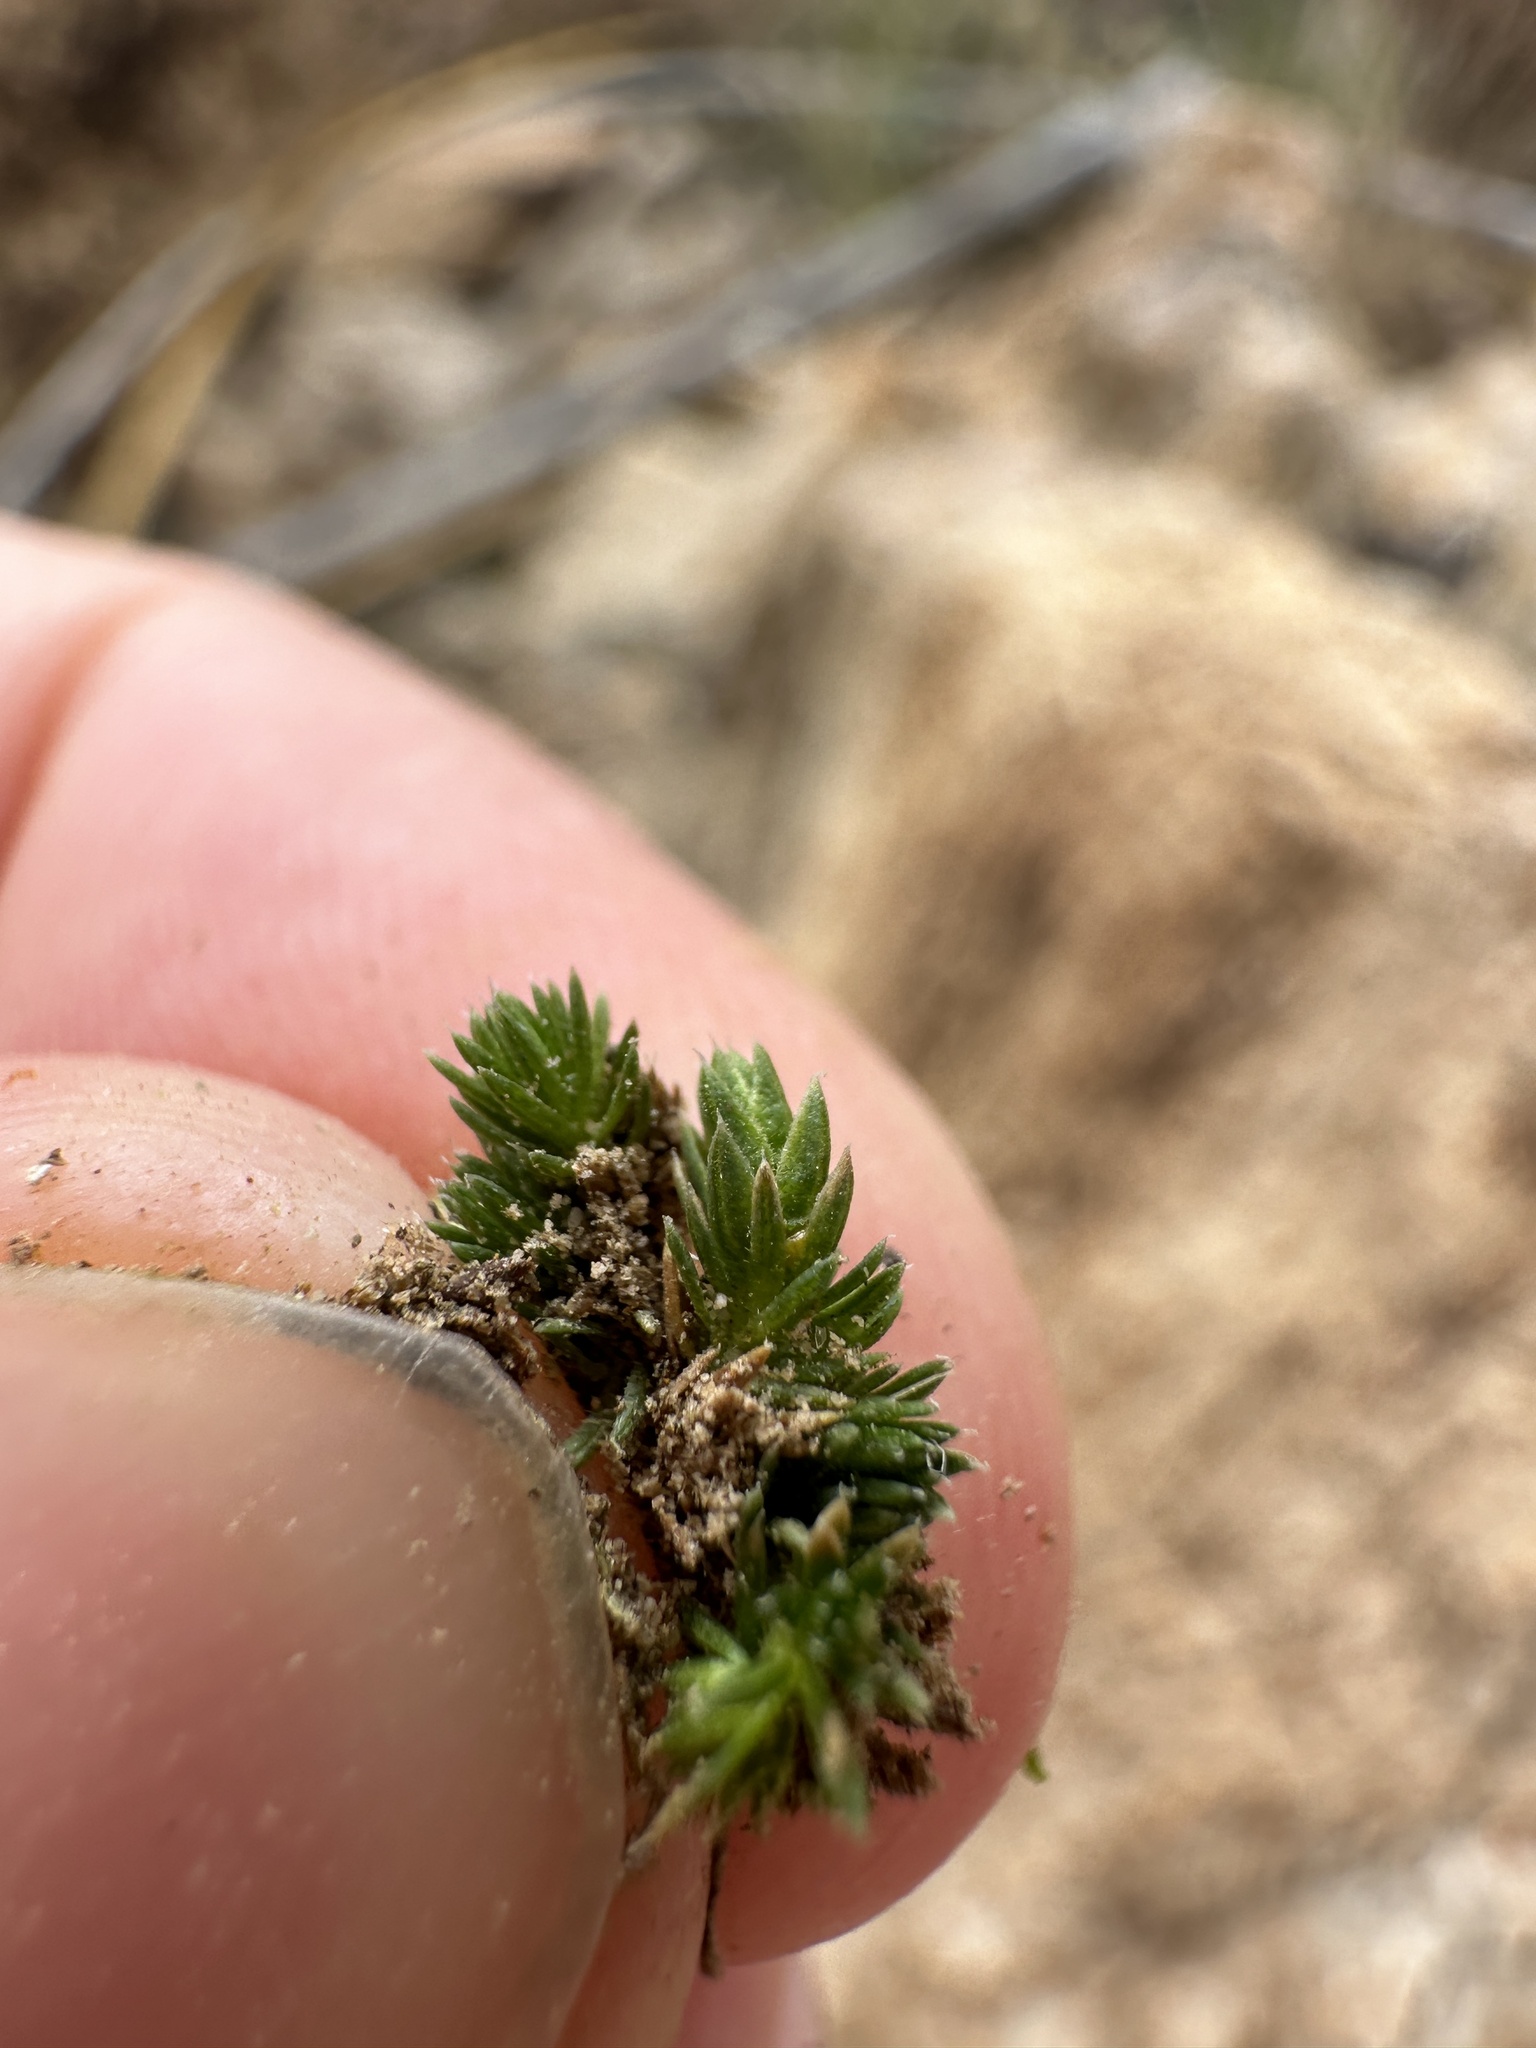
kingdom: Plantae
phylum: Tracheophyta
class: Lycopodiopsida
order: Selaginellales
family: Selaginellaceae
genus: Selaginella
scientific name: Selaginella leucobryoides
